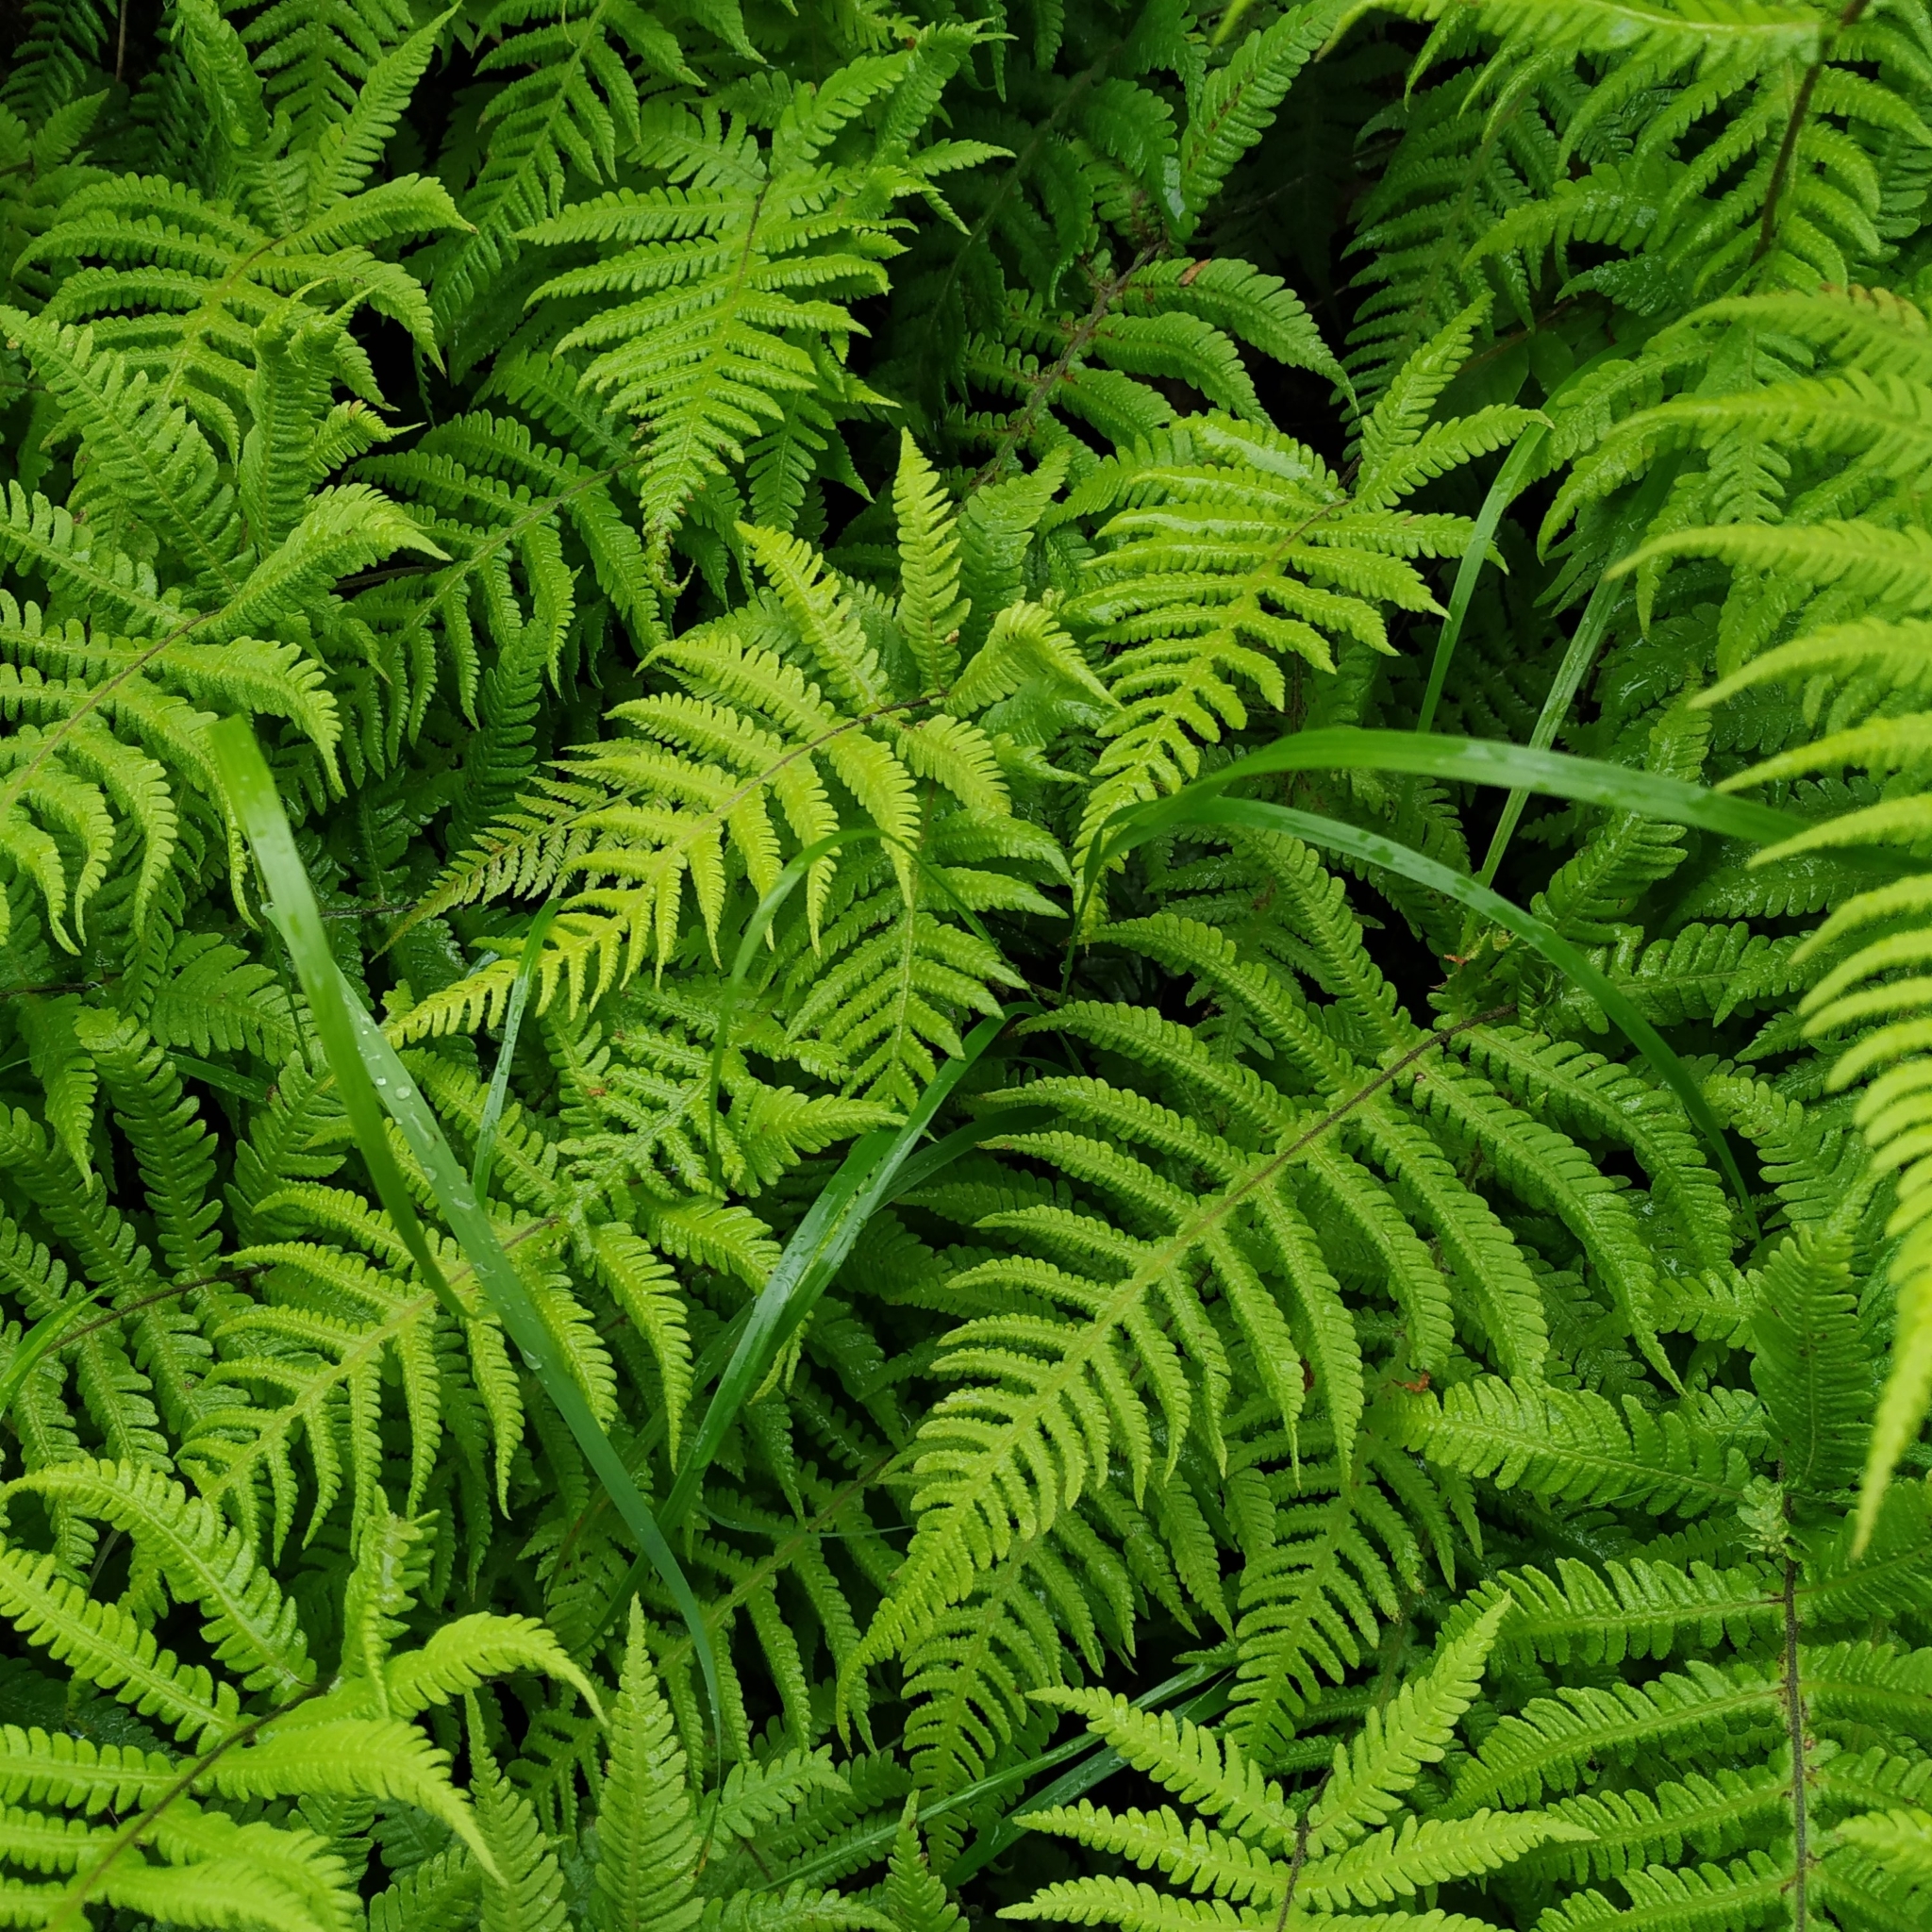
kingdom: Plantae
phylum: Tracheophyta
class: Polypodiopsida
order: Polypodiales
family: Thelypteridaceae
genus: Phegopteris
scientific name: Phegopteris connectilis
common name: Beech fern
